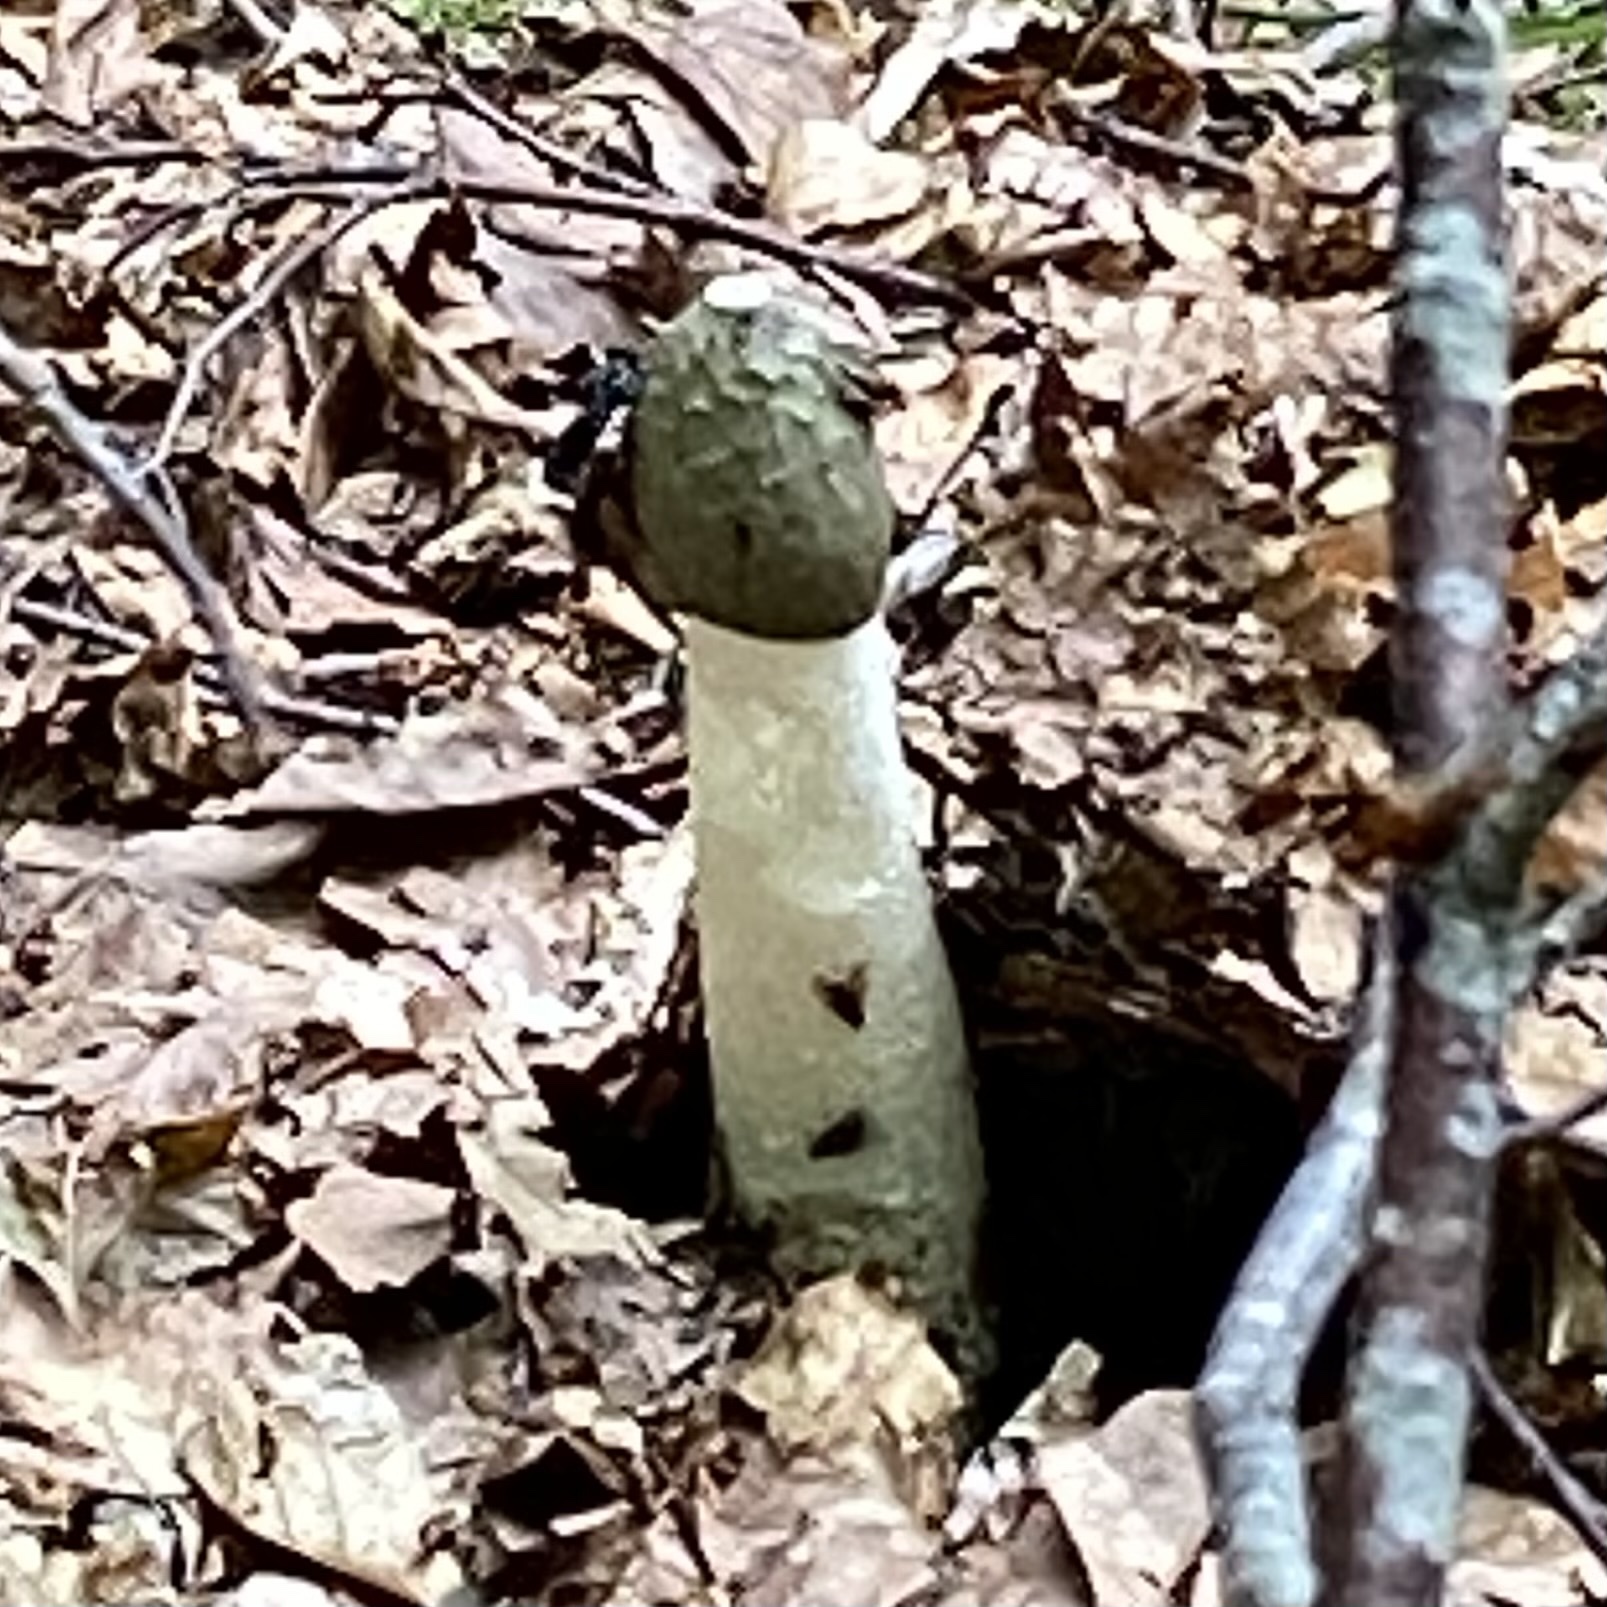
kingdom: Fungi
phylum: Basidiomycota
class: Agaricomycetes
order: Phallales
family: Phallaceae
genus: Phallus
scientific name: Phallus impudicus
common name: Common stinkhorn
